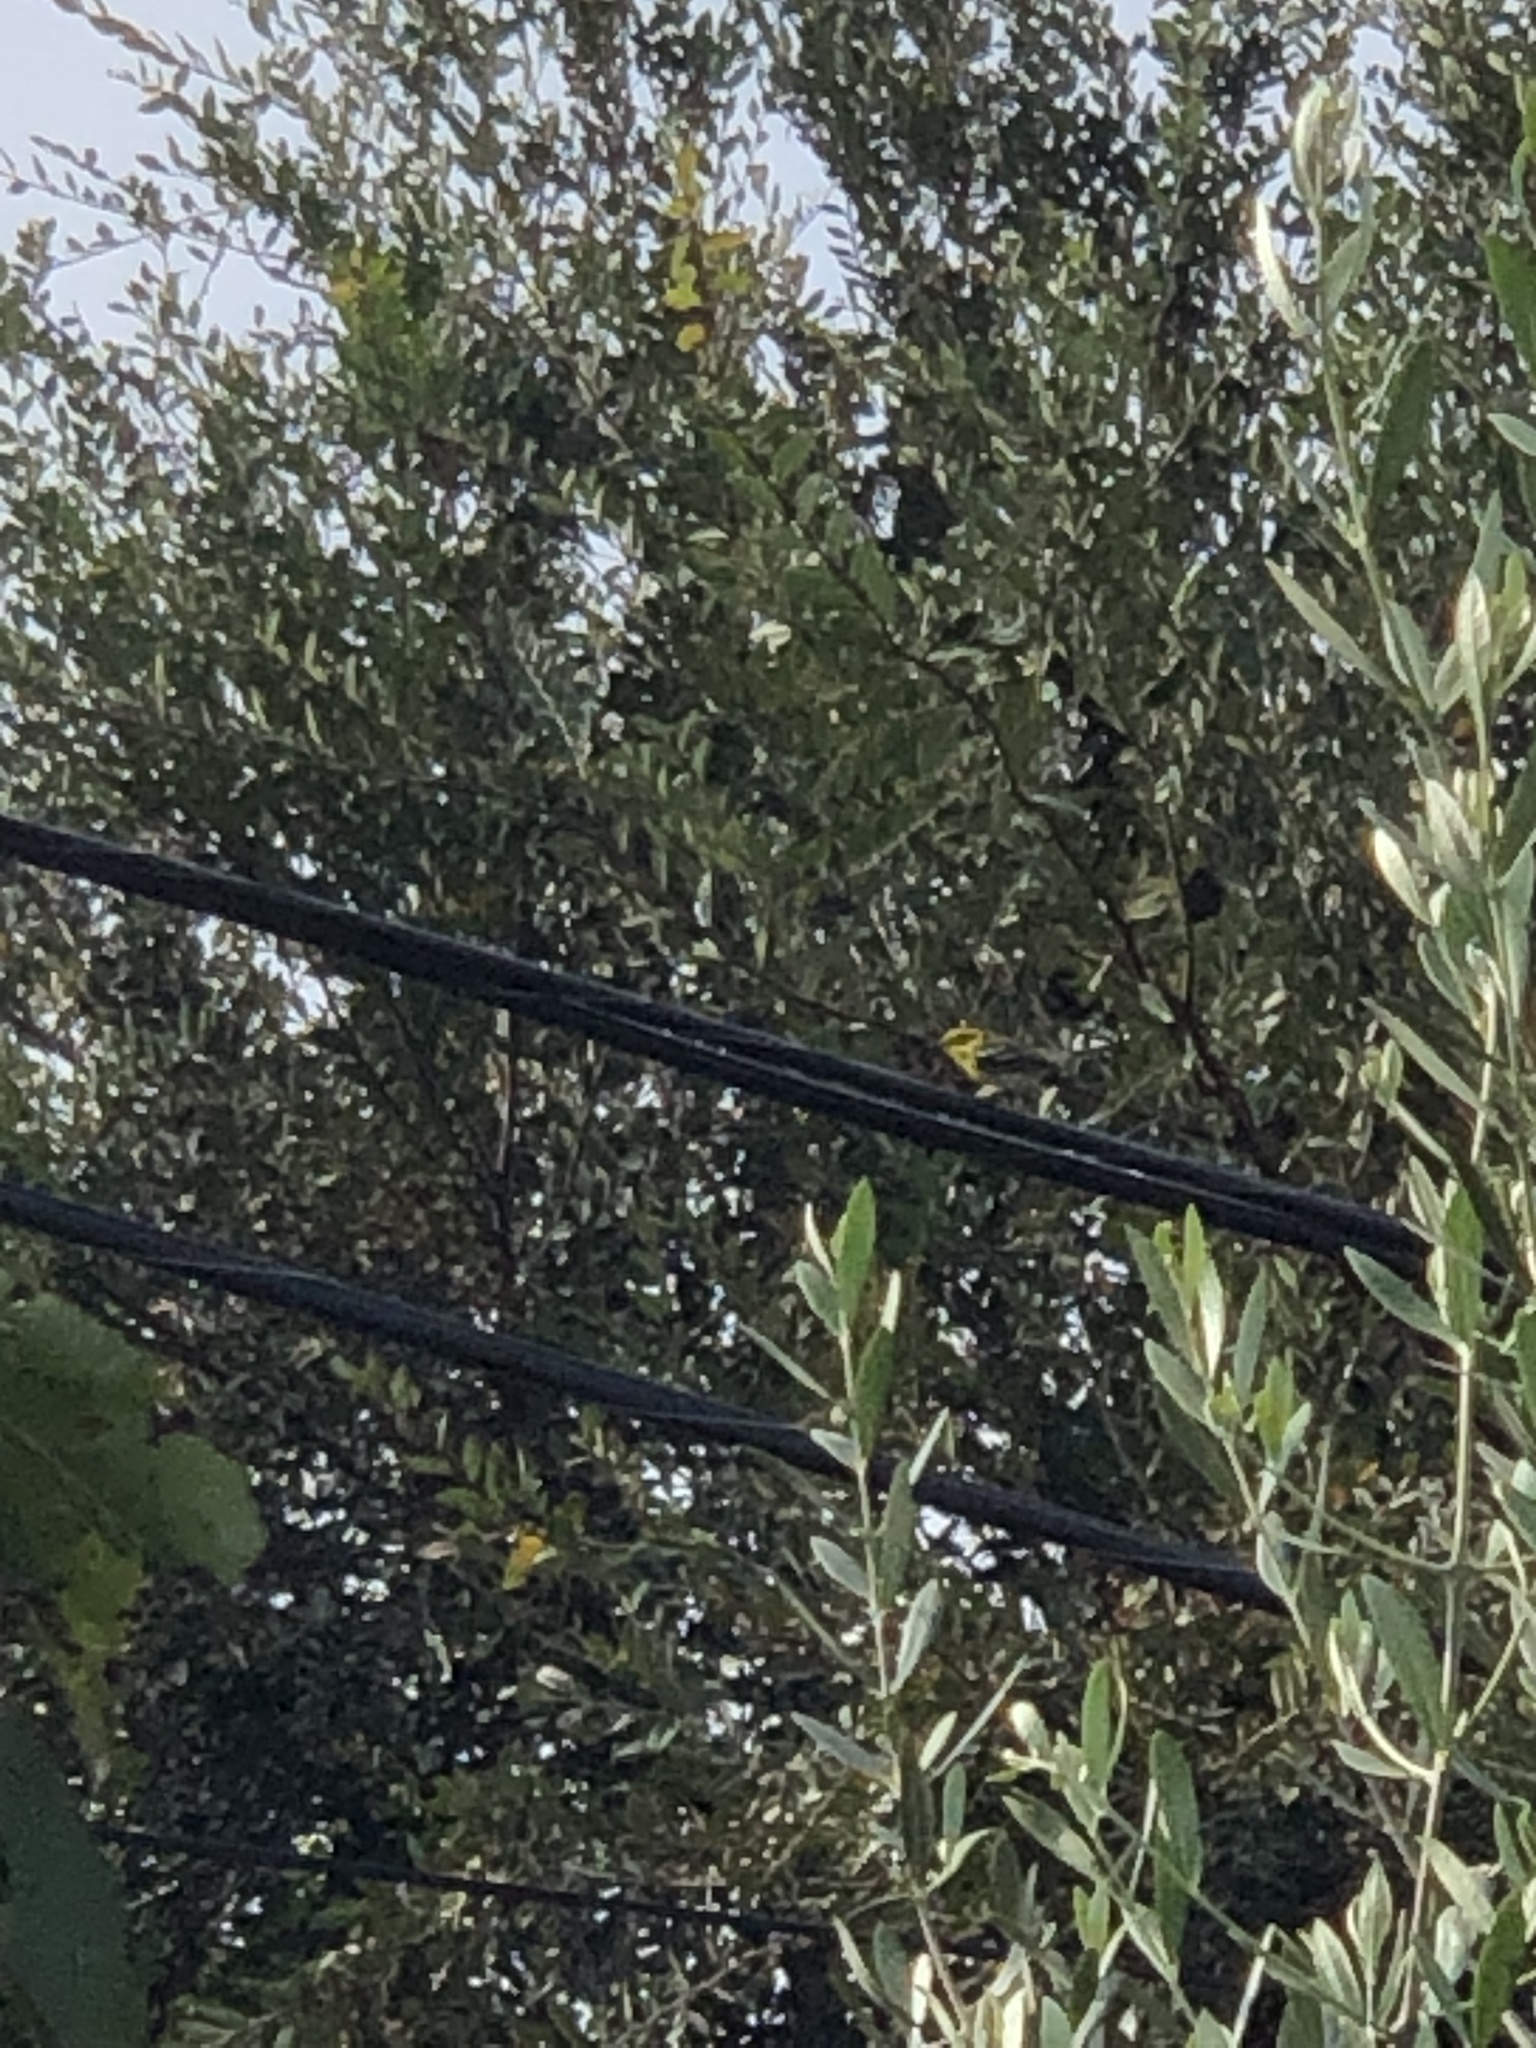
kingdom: Animalia
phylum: Chordata
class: Aves
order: Passeriformes
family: Parulidae
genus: Setophaga
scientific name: Setophaga townsendi
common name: Townsend's warbler
